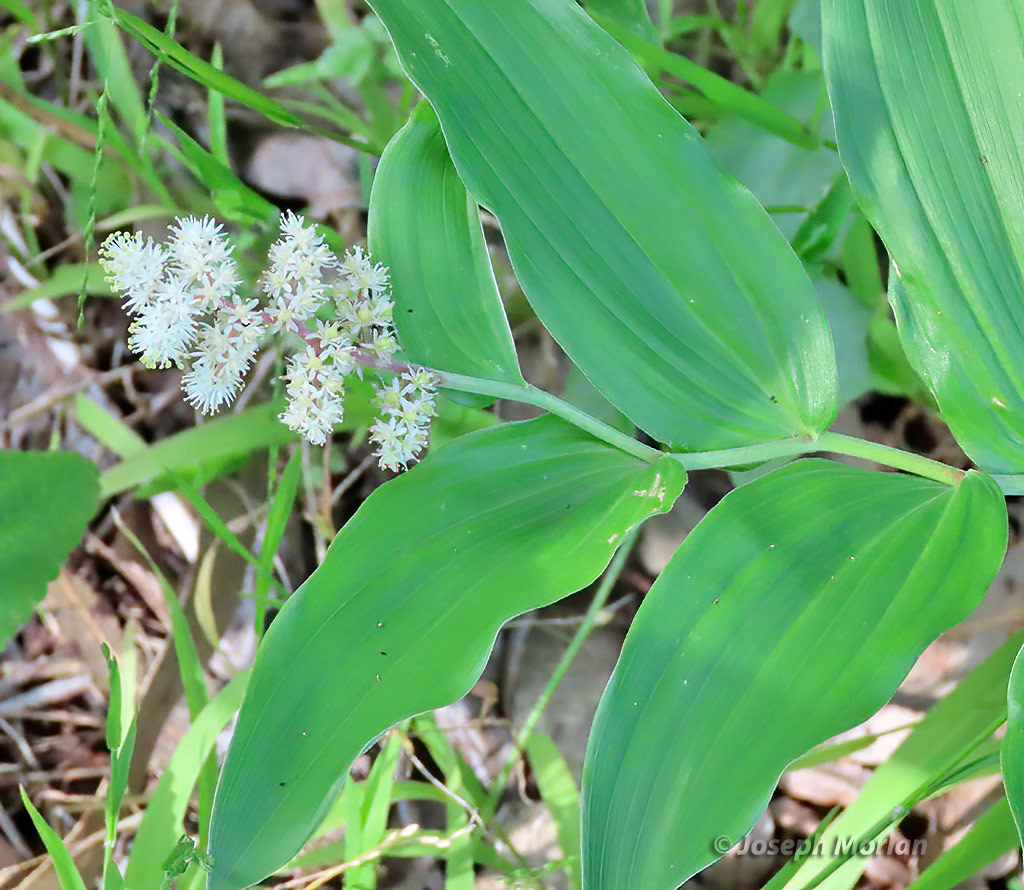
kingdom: Plantae
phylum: Tracheophyta
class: Liliopsida
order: Asparagales
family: Asparagaceae
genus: Maianthemum
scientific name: Maianthemum racemosum
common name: False spikenard
